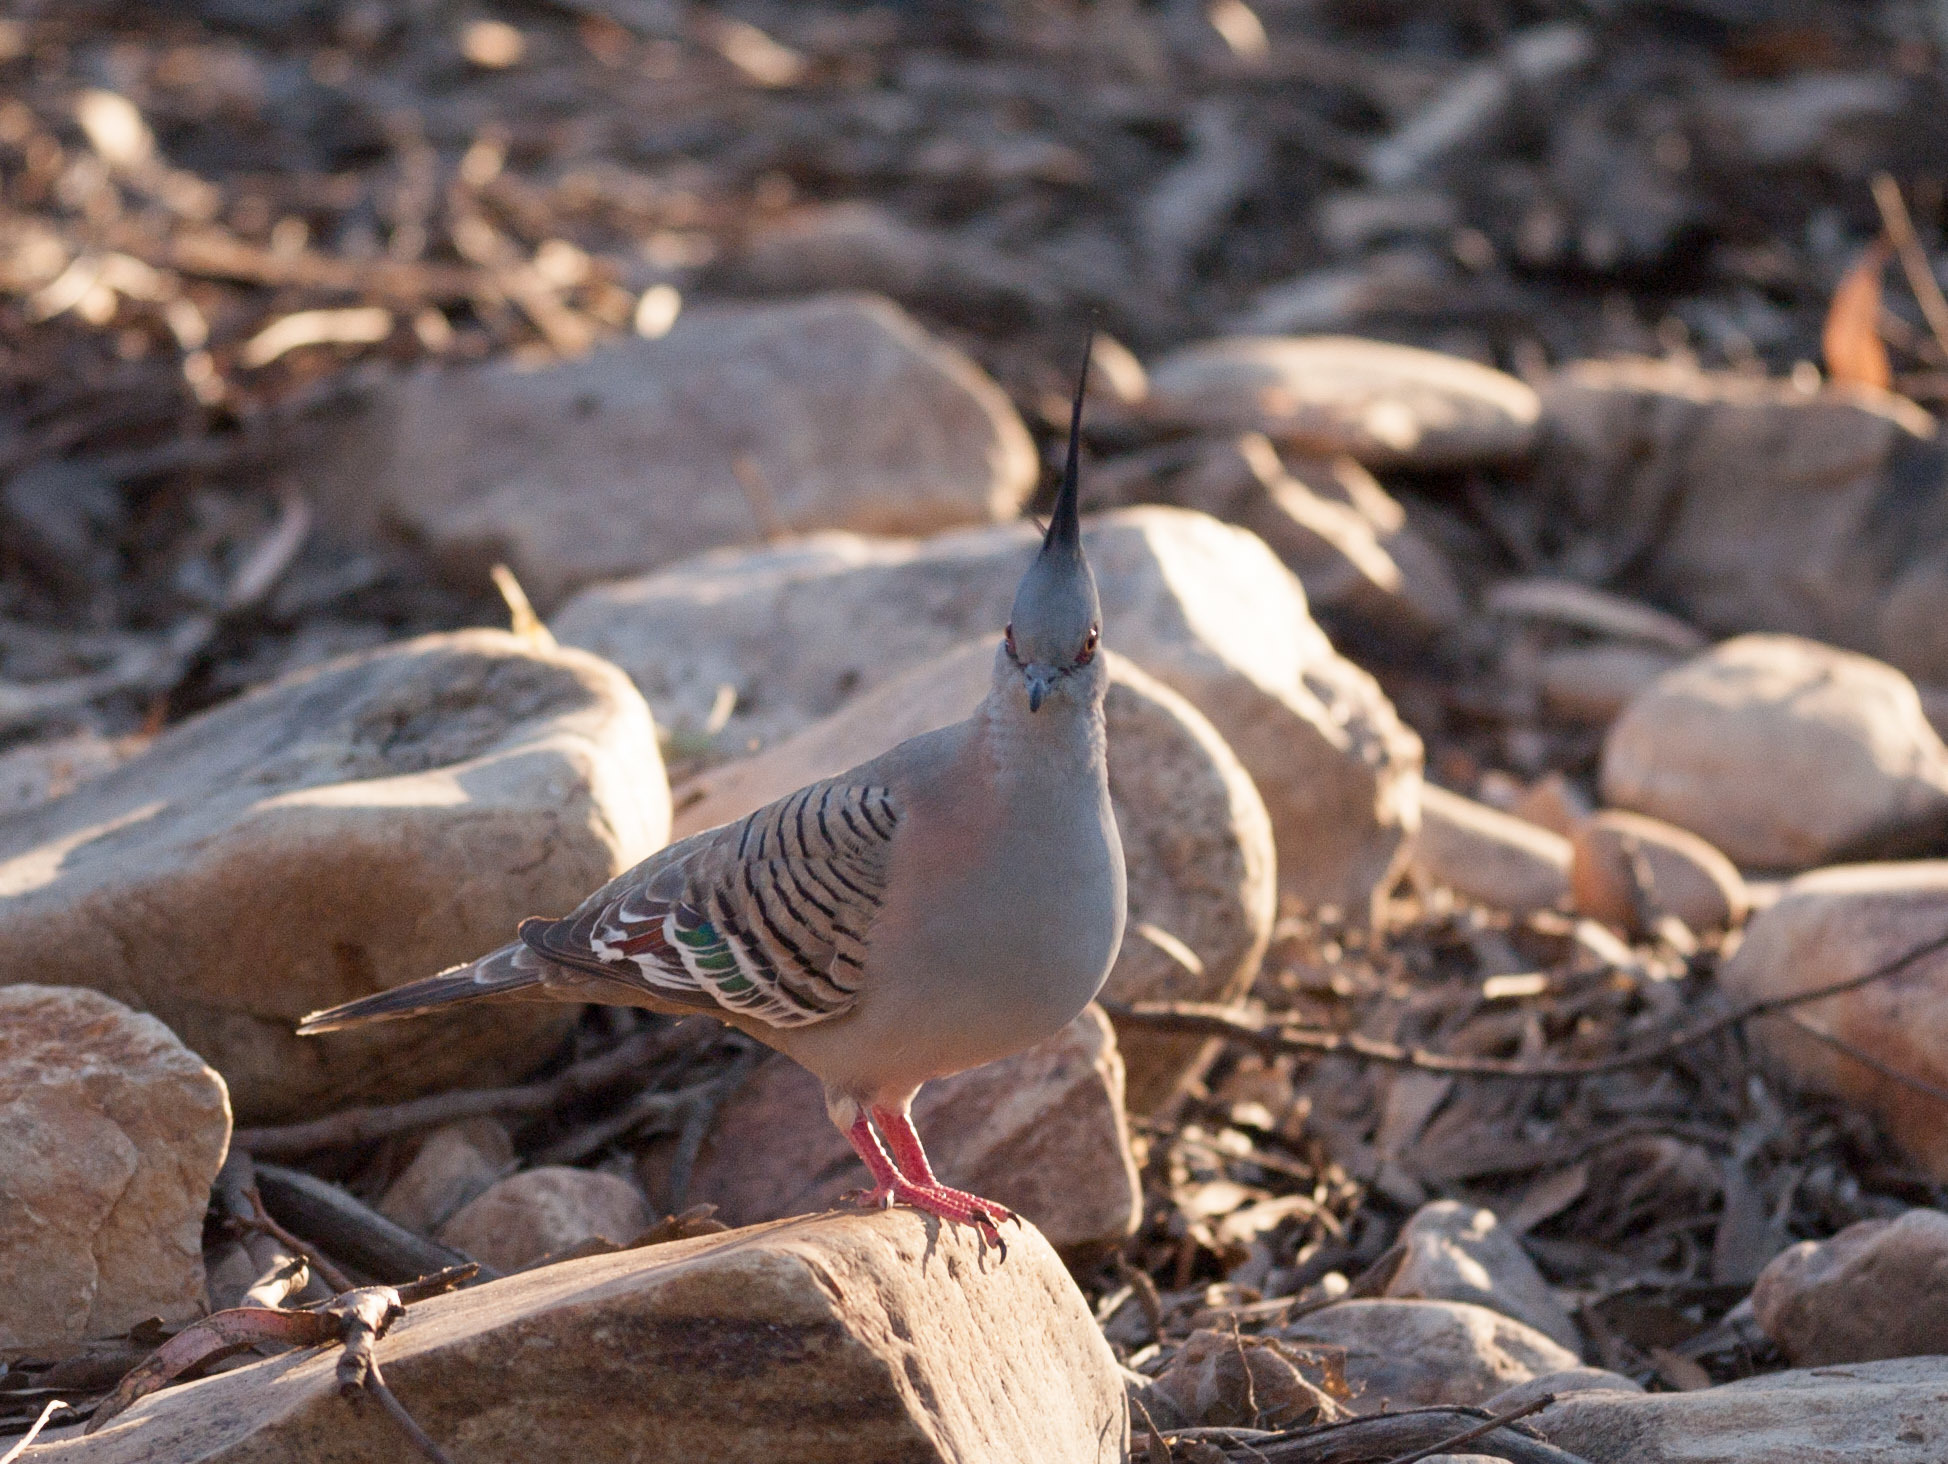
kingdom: Animalia
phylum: Chordata
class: Aves
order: Columbiformes
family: Columbidae
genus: Ocyphaps
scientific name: Ocyphaps lophotes
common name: Crested pigeon
